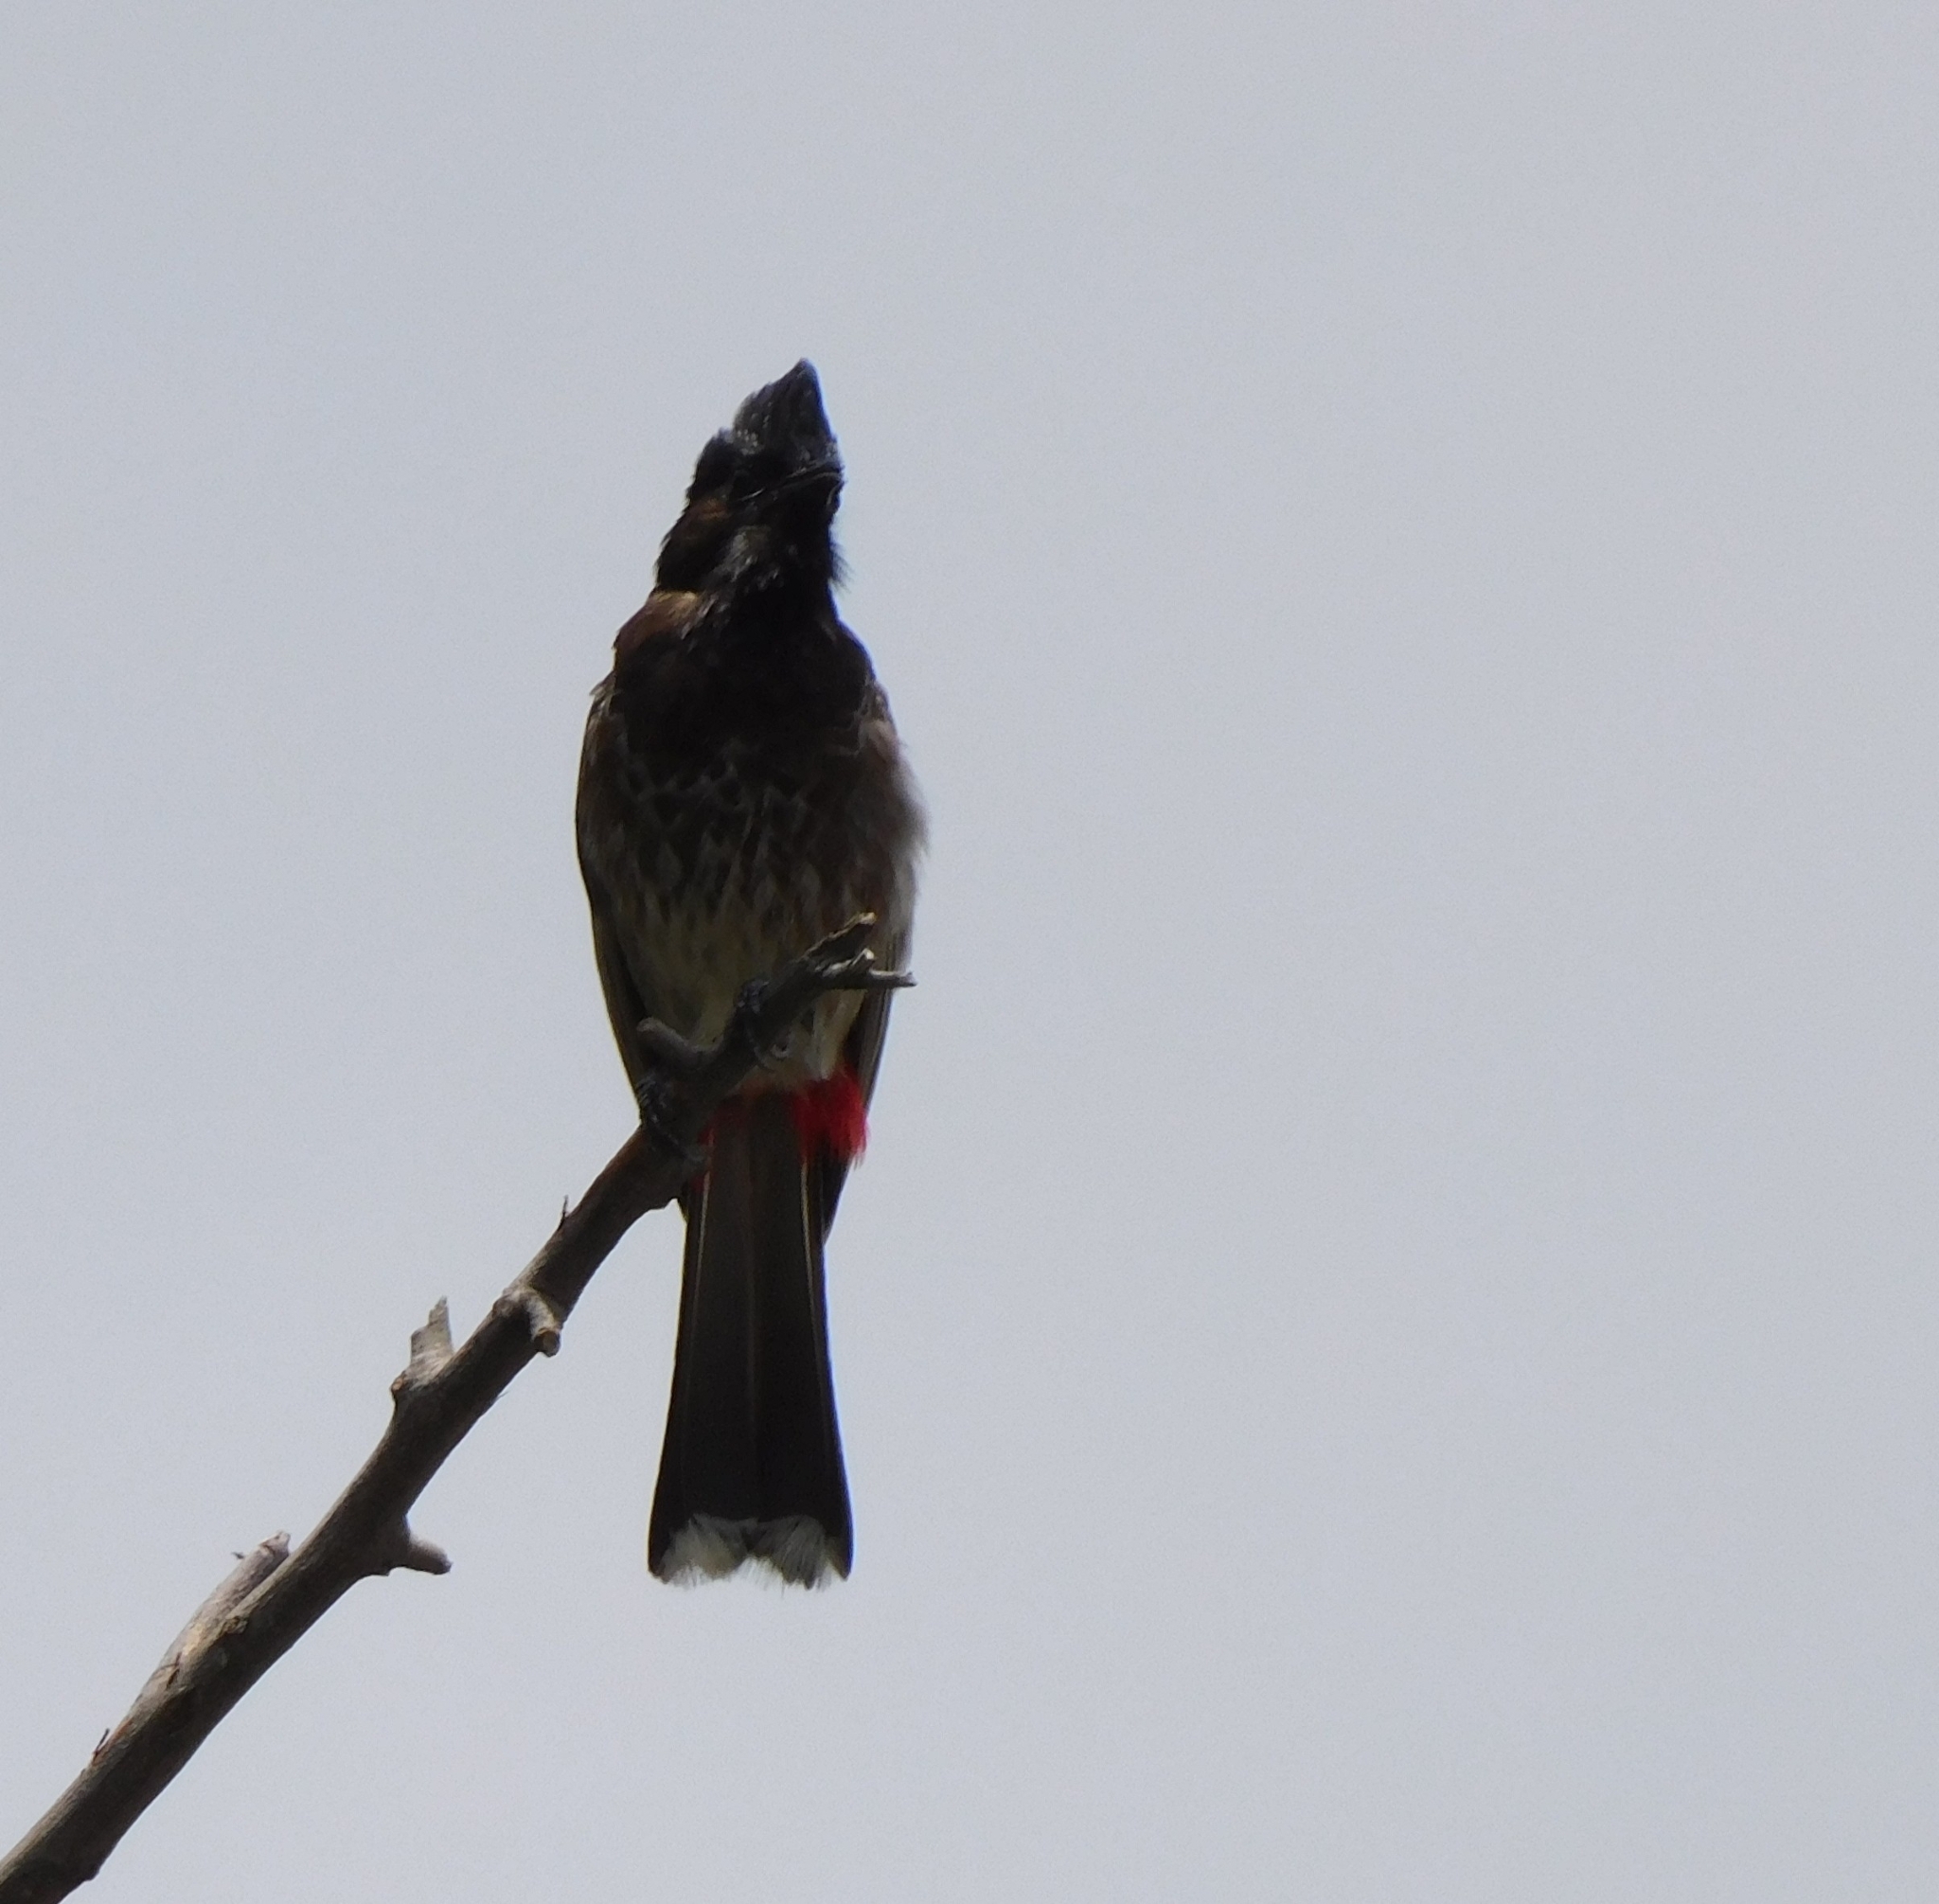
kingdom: Animalia
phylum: Chordata
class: Aves
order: Passeriformes
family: Pycnonotidae
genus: Pycnonotus
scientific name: Pycnonotus cafer
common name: Red-vented bulbul
